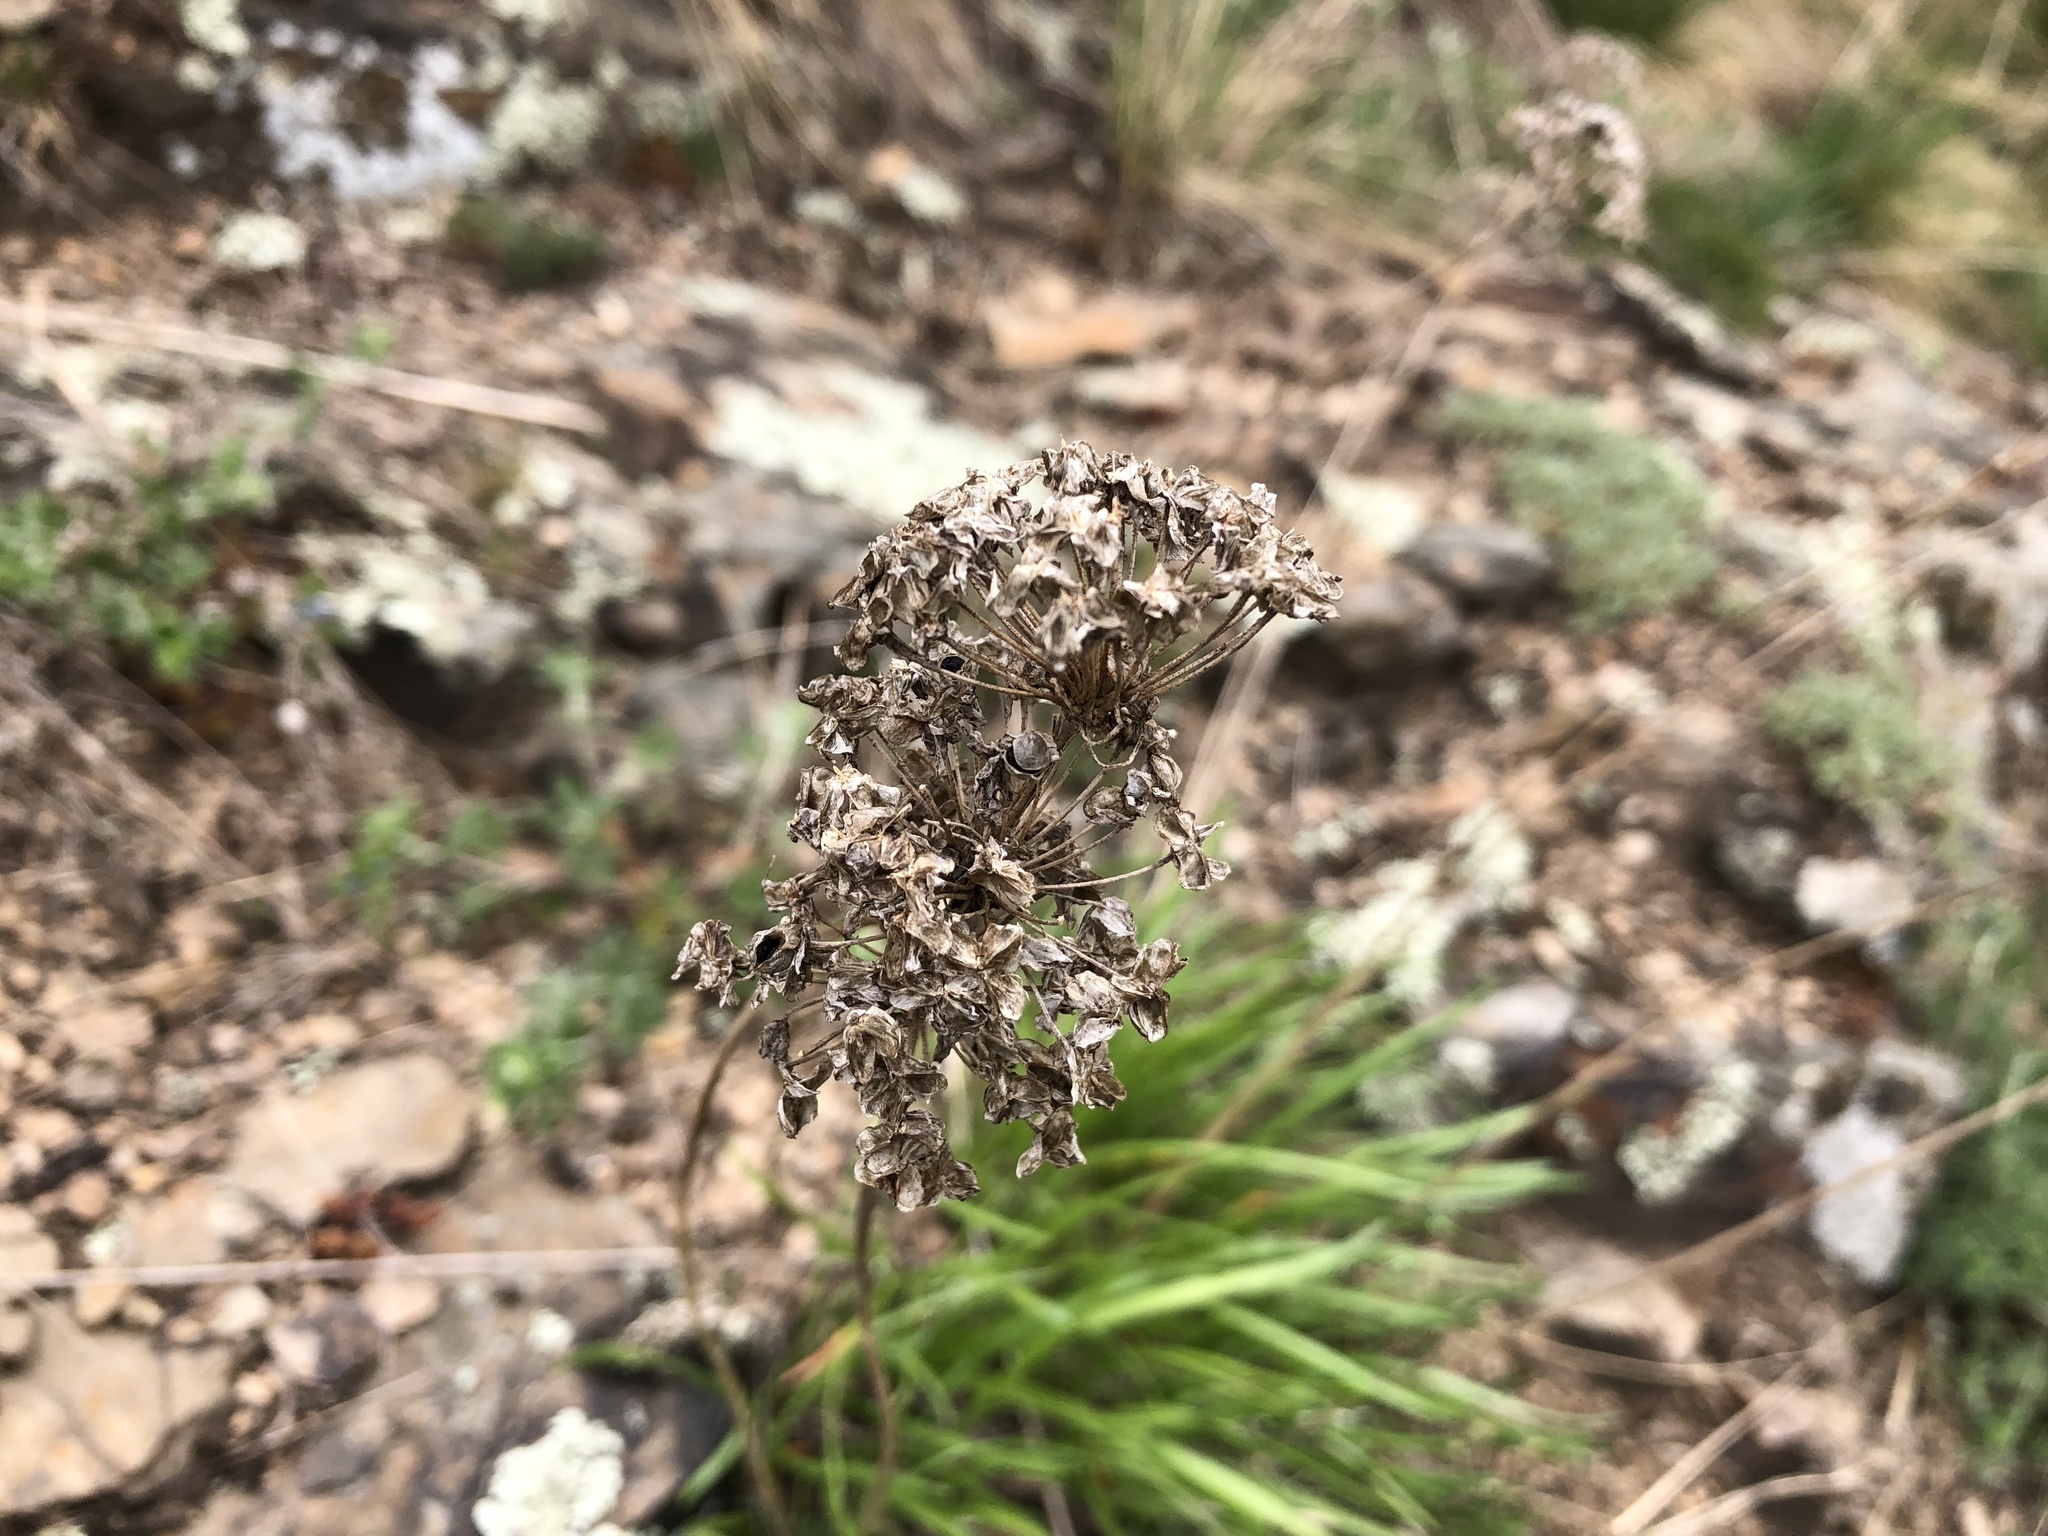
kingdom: Plantae
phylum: Tracheophyta
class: Liliopsida
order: Asparagales
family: Amaryllidaceae
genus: Allium
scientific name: Allium lusitanicum
